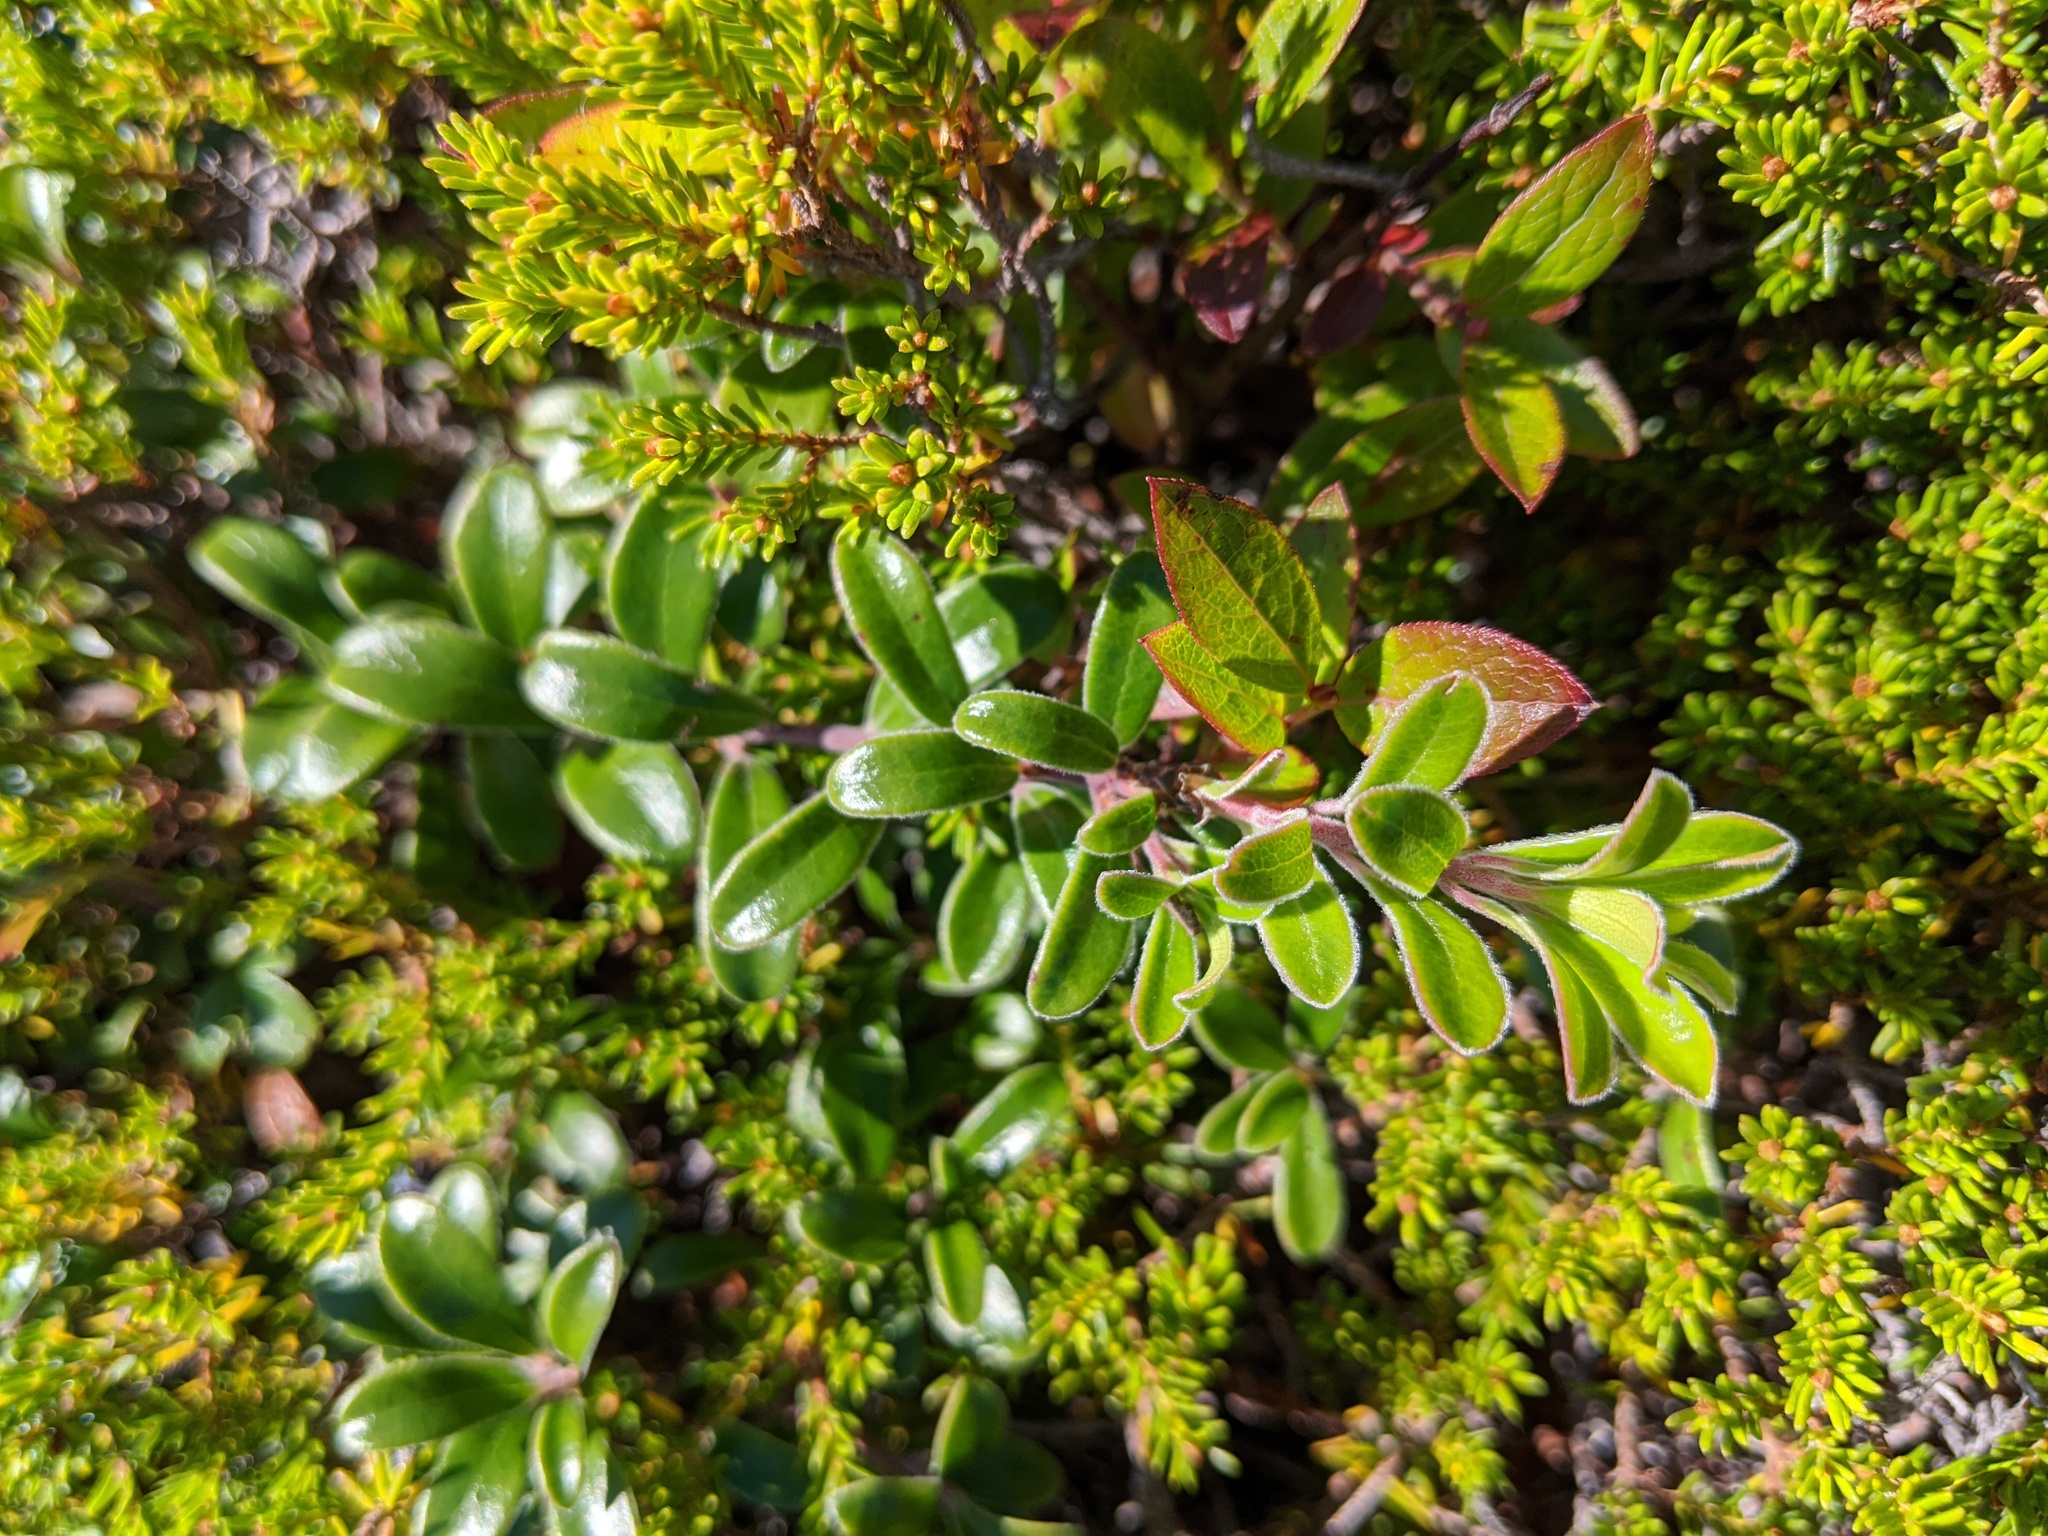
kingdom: Plantae
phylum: Tracheophyta
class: Magnoliopsida
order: Ericales
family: Ericaceae
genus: Arctostaphylos
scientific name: Arctostaphylos uva-ursi
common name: Bearberry
